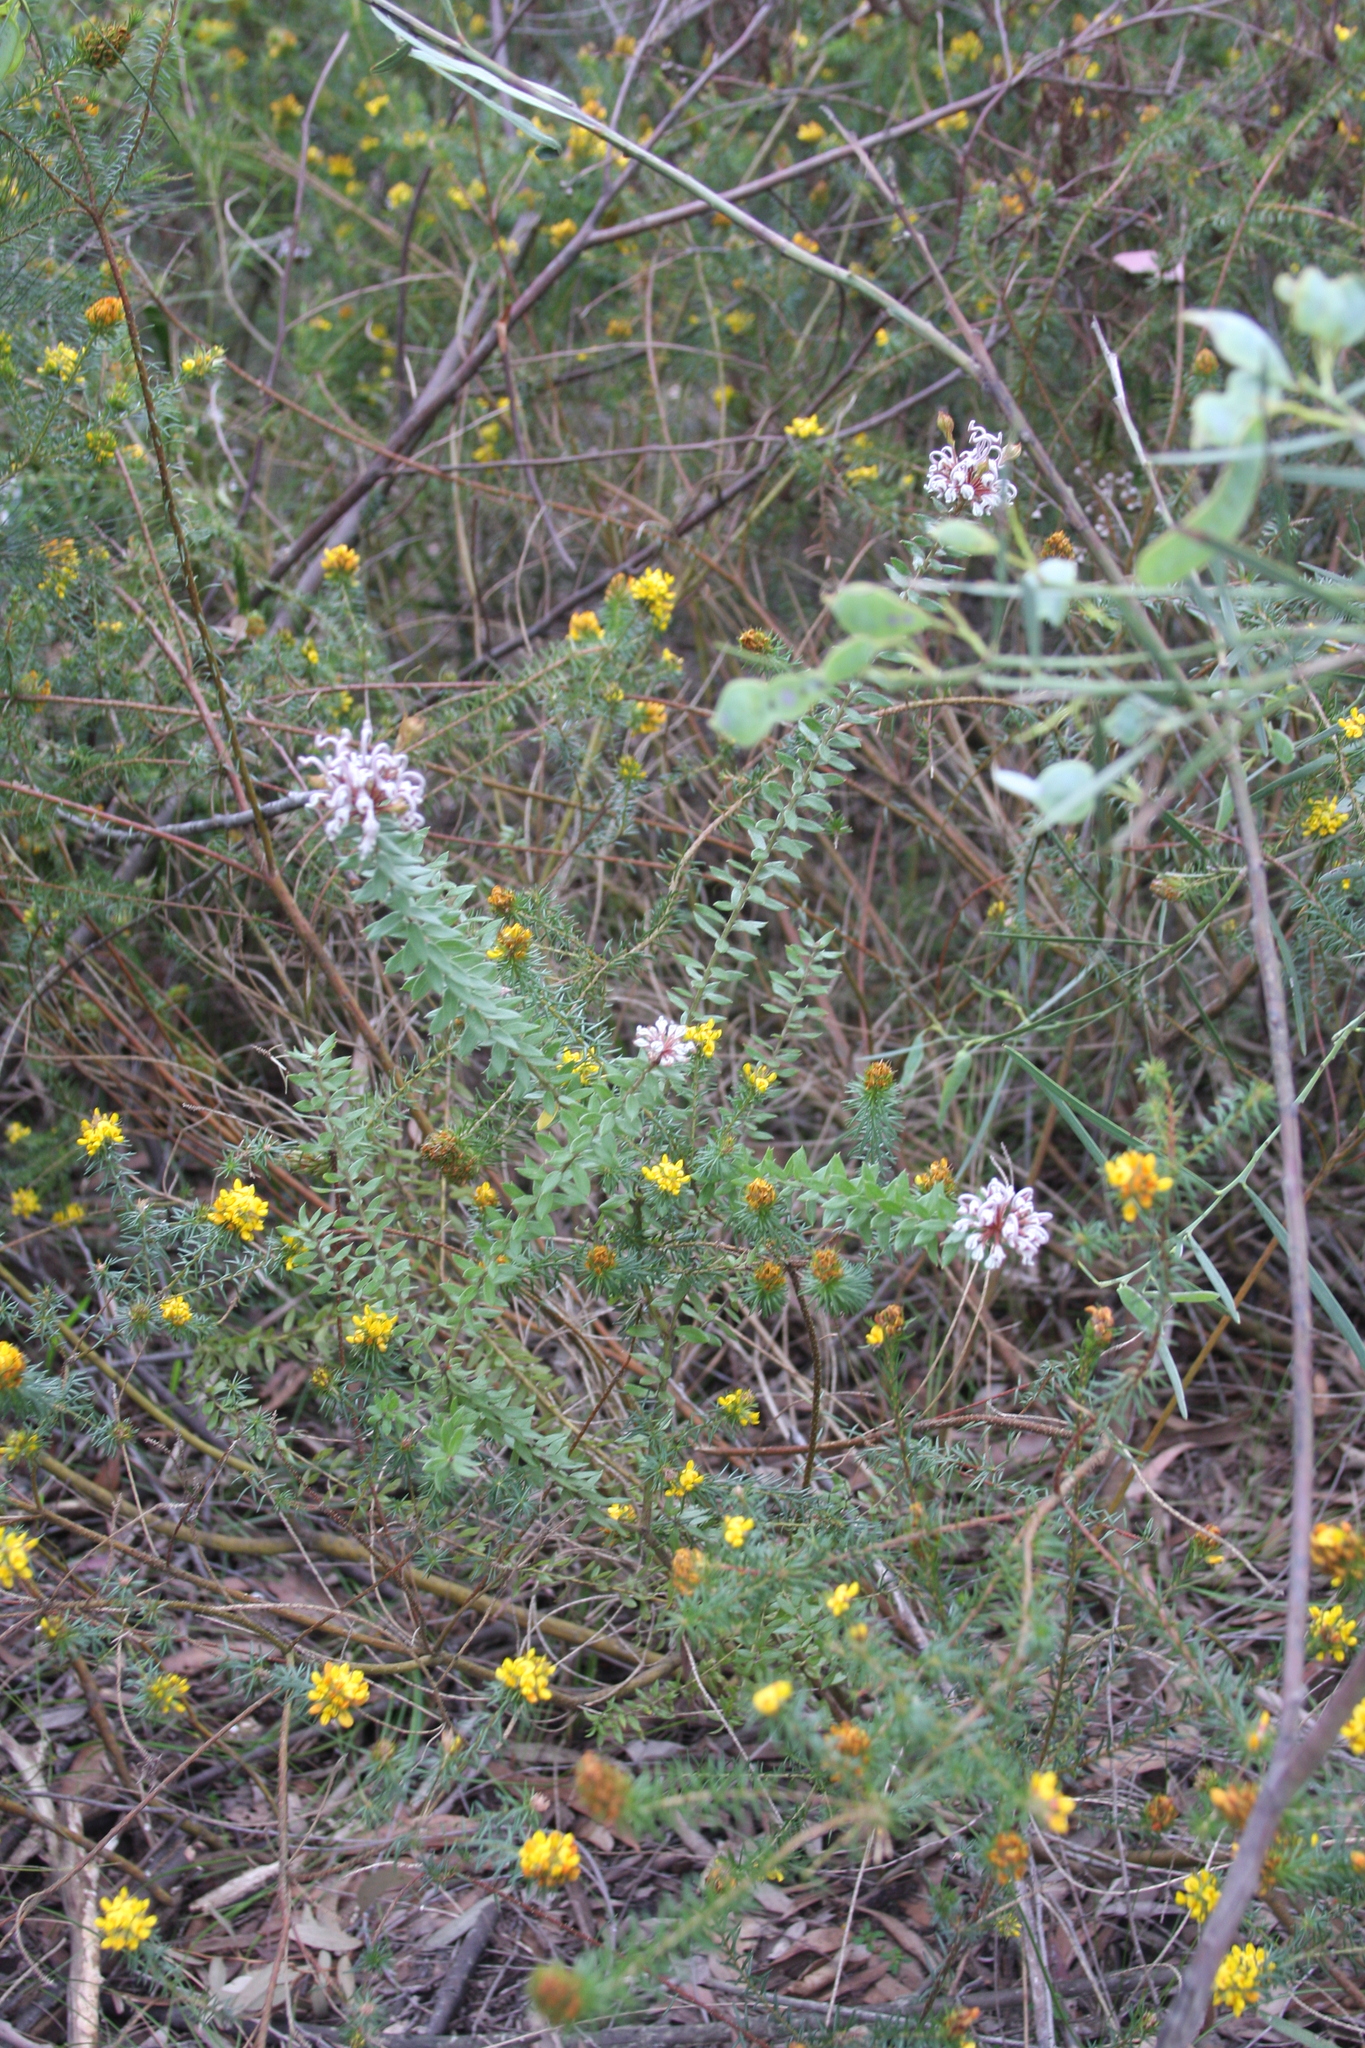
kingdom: Plantae
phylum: Tracheophyta
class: Magnoliopsida
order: Proteales
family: Proteaceae
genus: Grevillea
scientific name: Grevillea buxifolia
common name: Grey spiderflower
